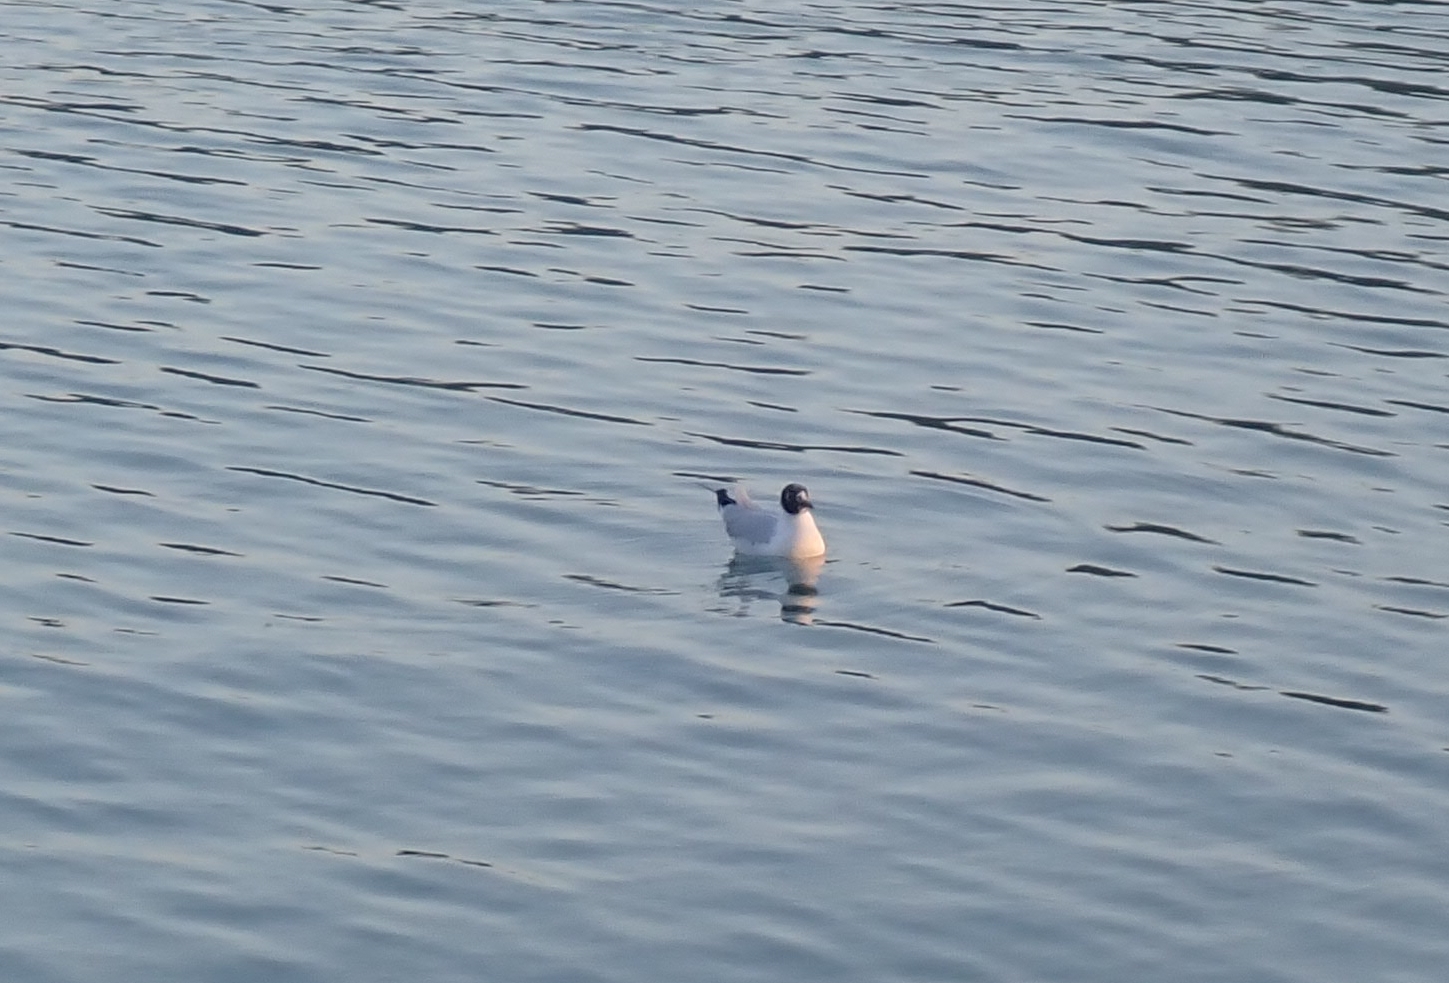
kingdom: Animalia
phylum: Chordata
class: Aves
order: Charadriiformes
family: Laridae
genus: Chroicocephalus
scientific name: Chroicocephalus ridibundus
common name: Black-headed gull
